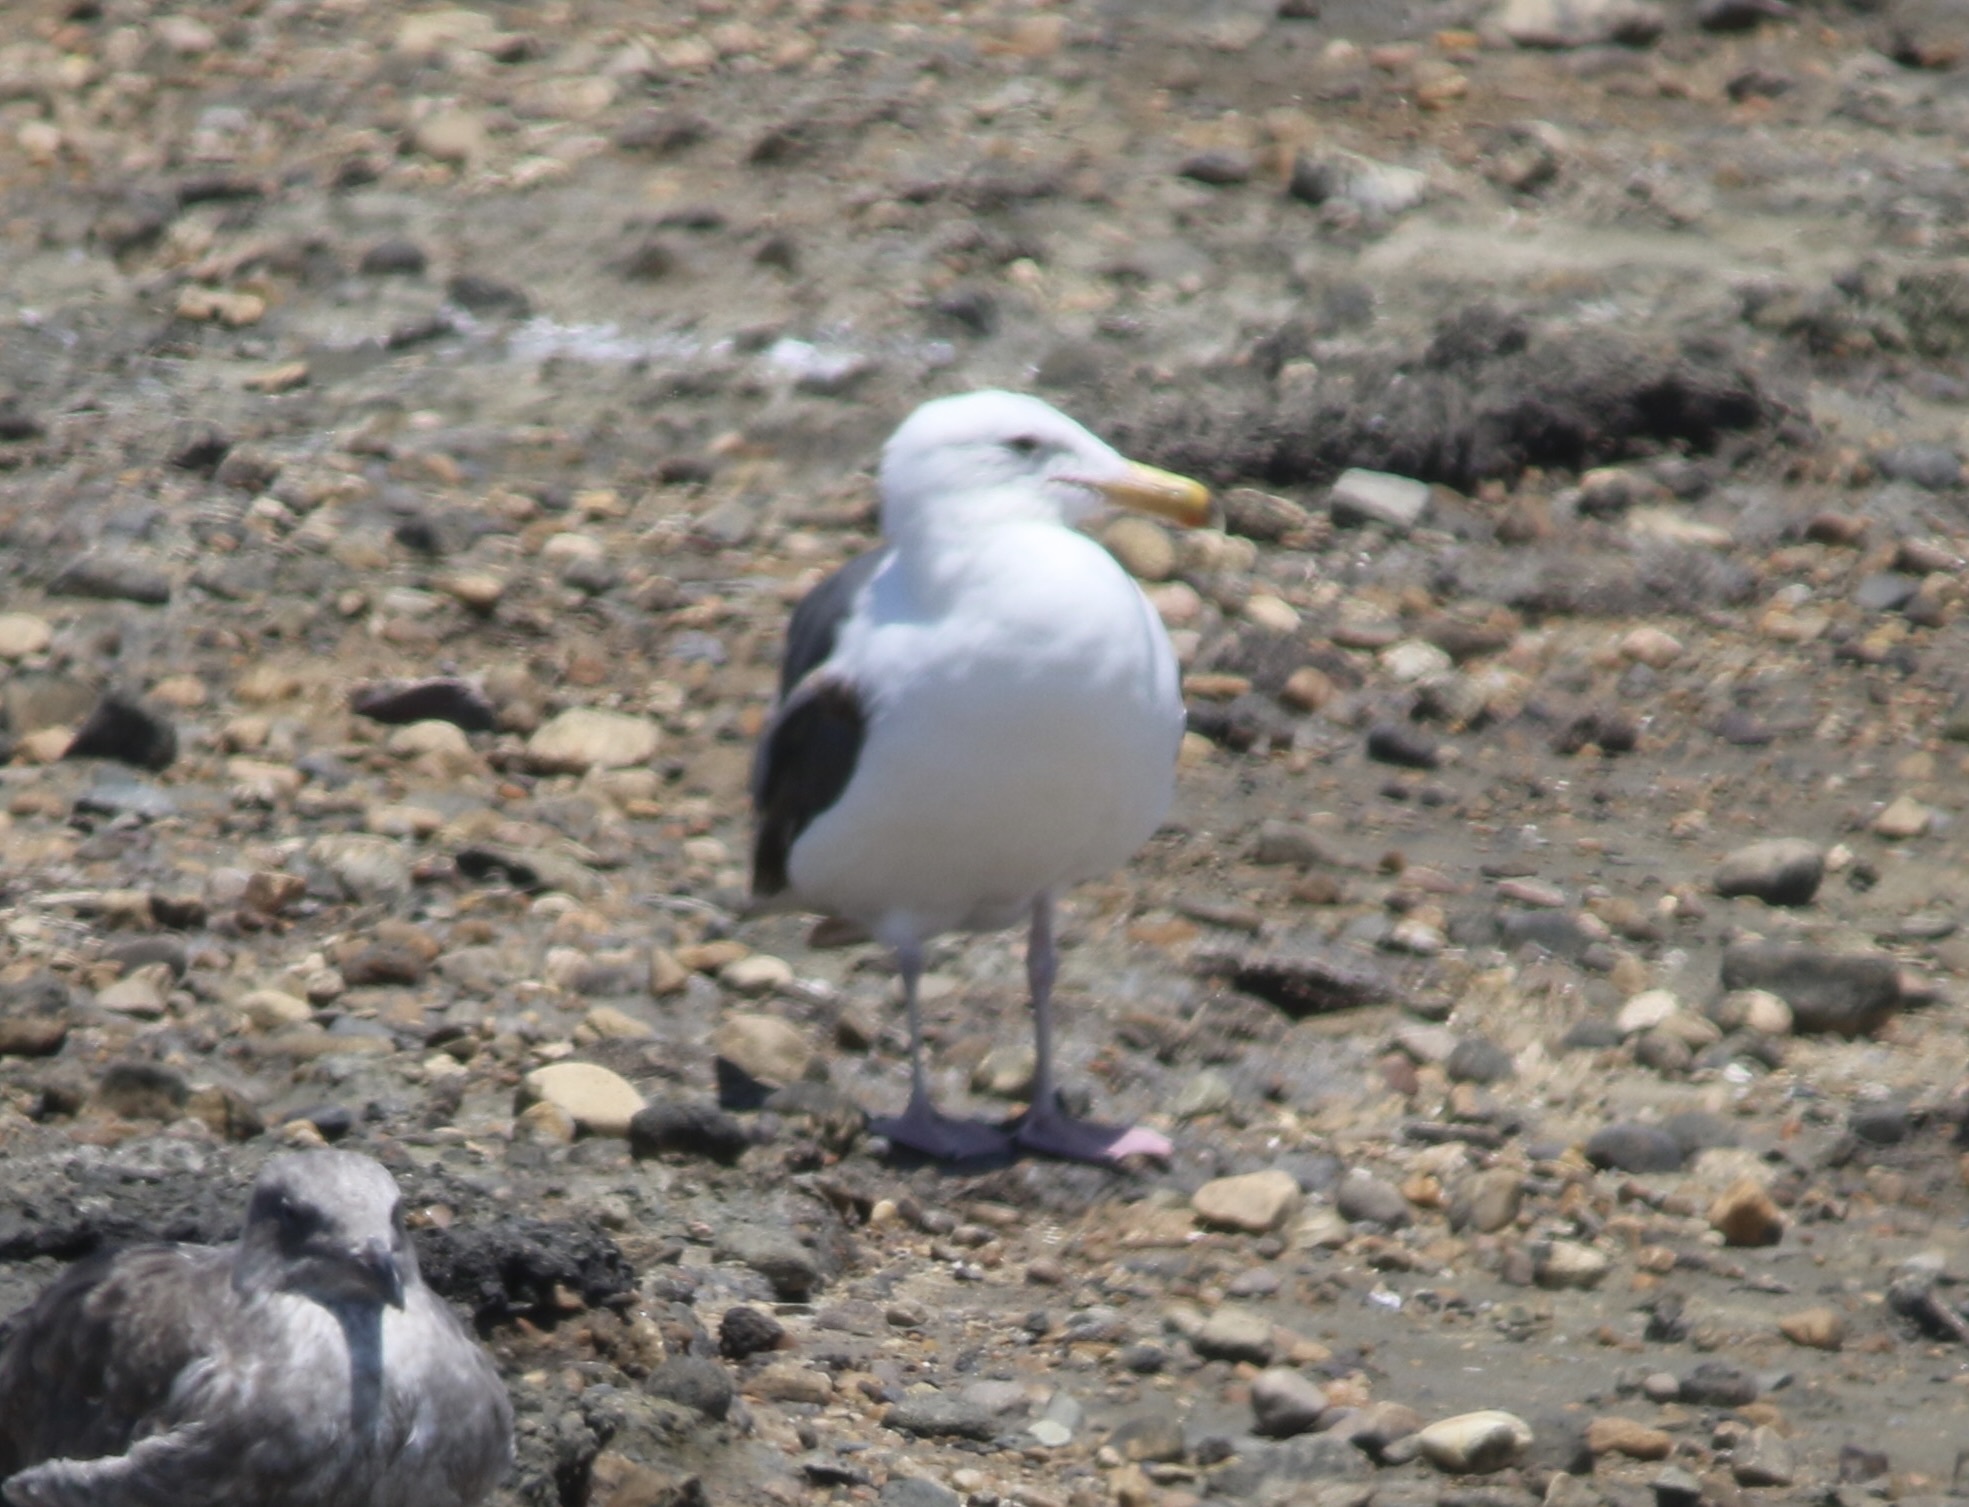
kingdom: Animalia
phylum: Chordata
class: Aves
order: Charadriiformes
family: Laridae
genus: Larus
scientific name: Larus occidentalis
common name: Western gull
